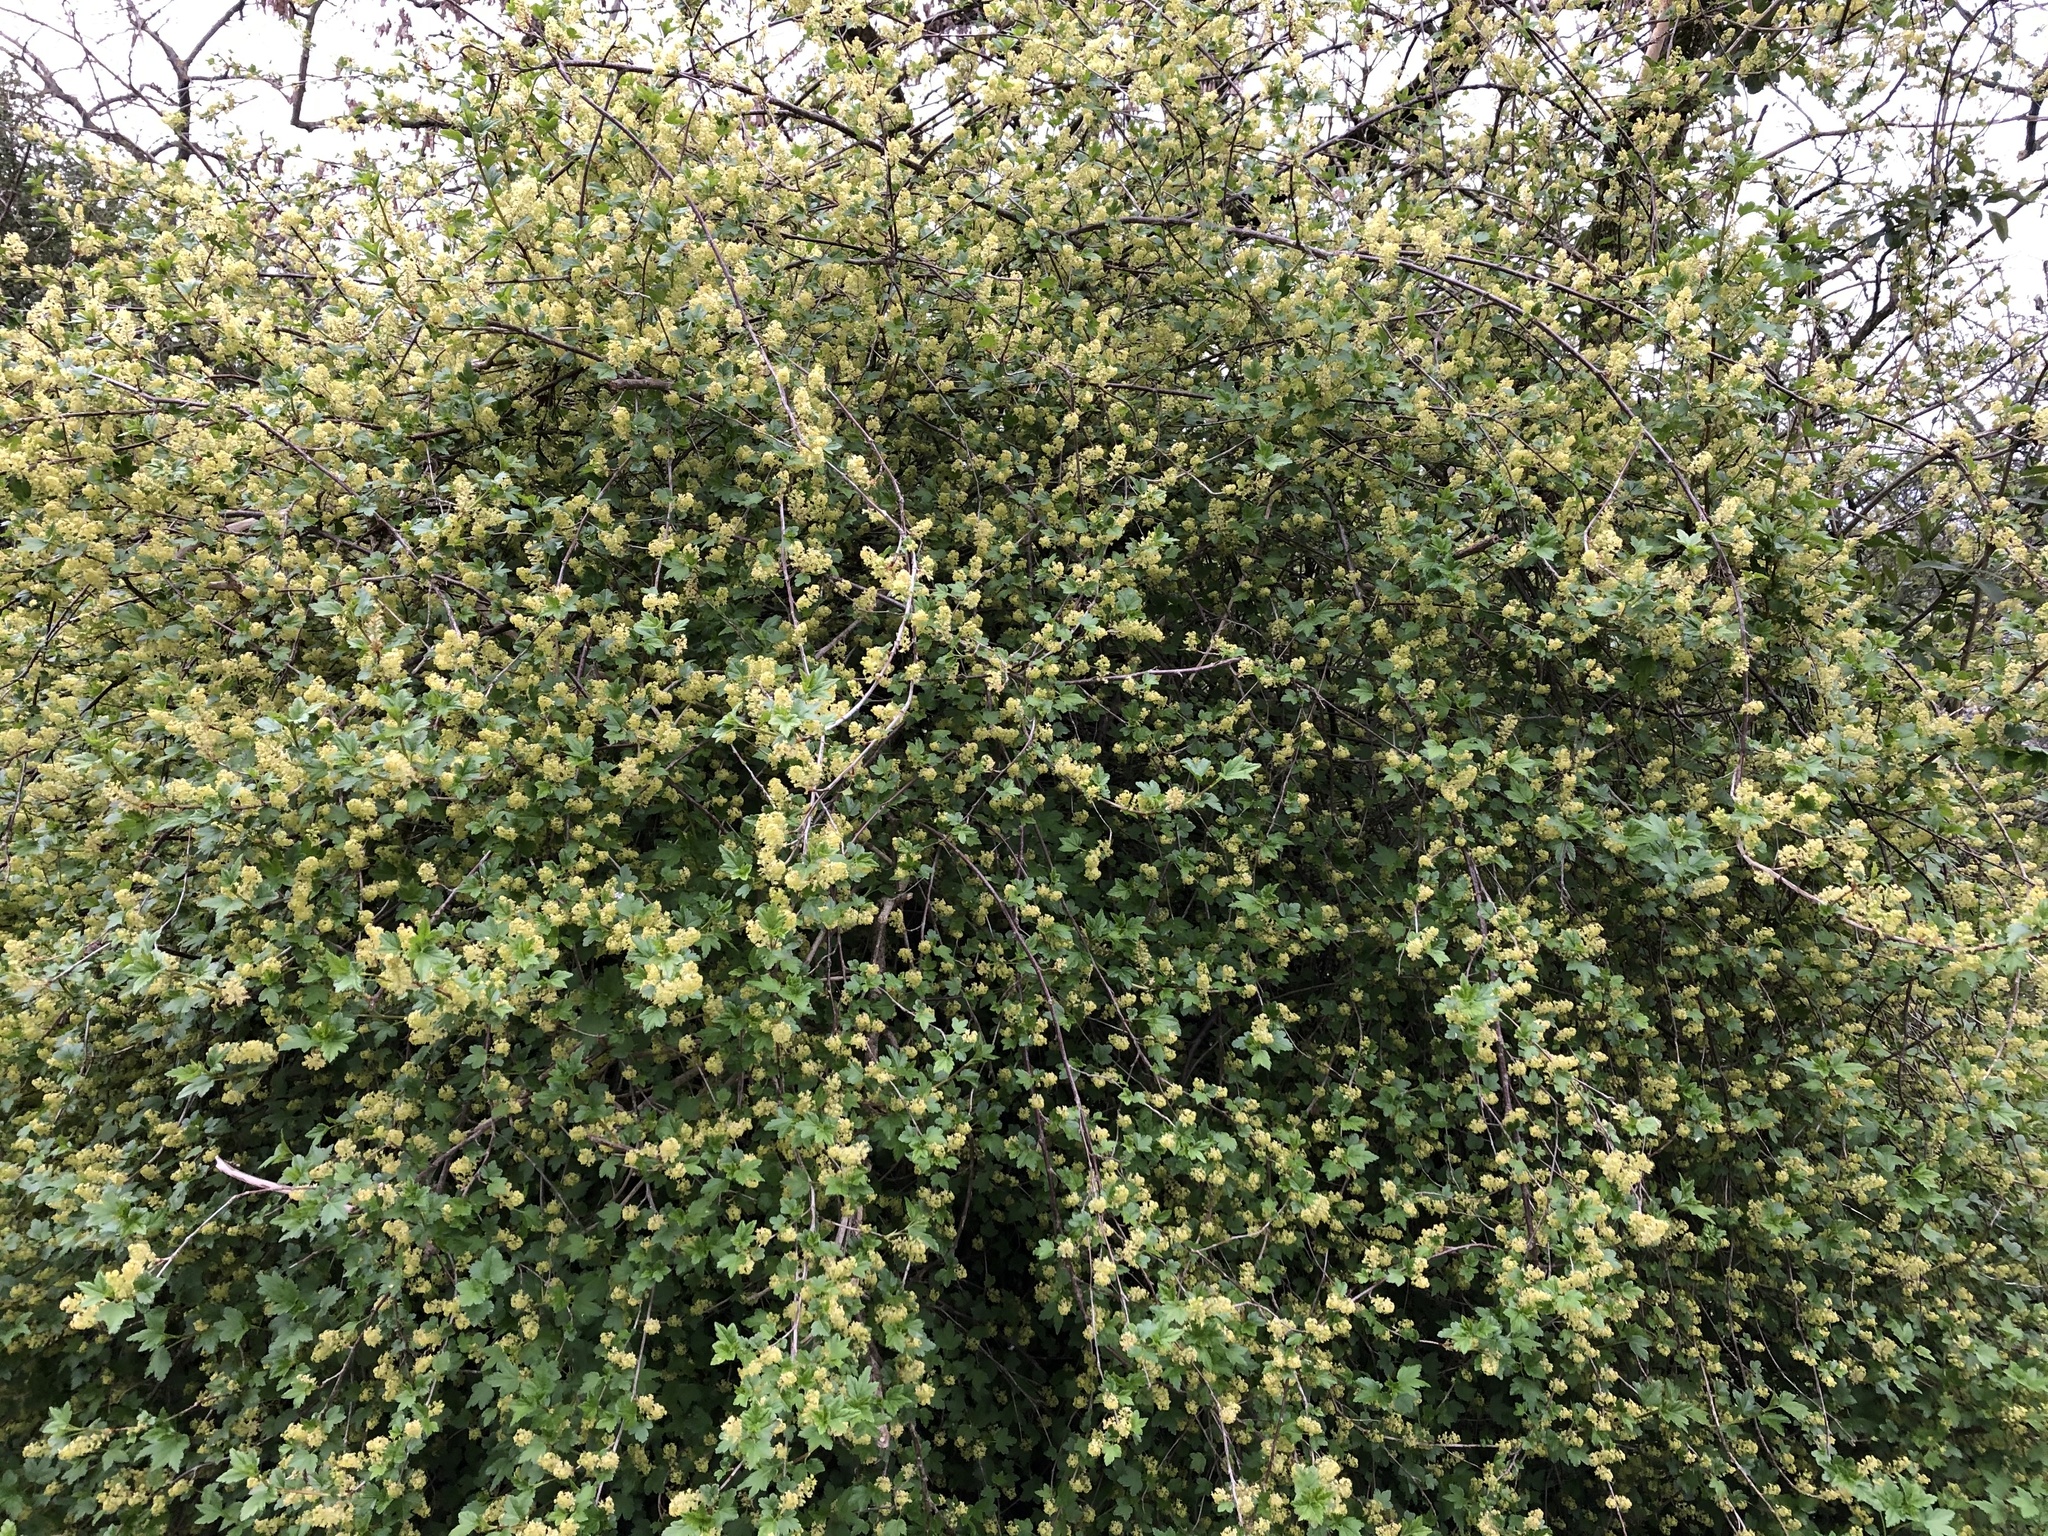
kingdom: Plantae
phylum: Tracheophyta
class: Magnoliopsida
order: Saxifragales
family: Grossulariaceae
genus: Ribes
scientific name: Ribes alpinum
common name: Alpine currant
